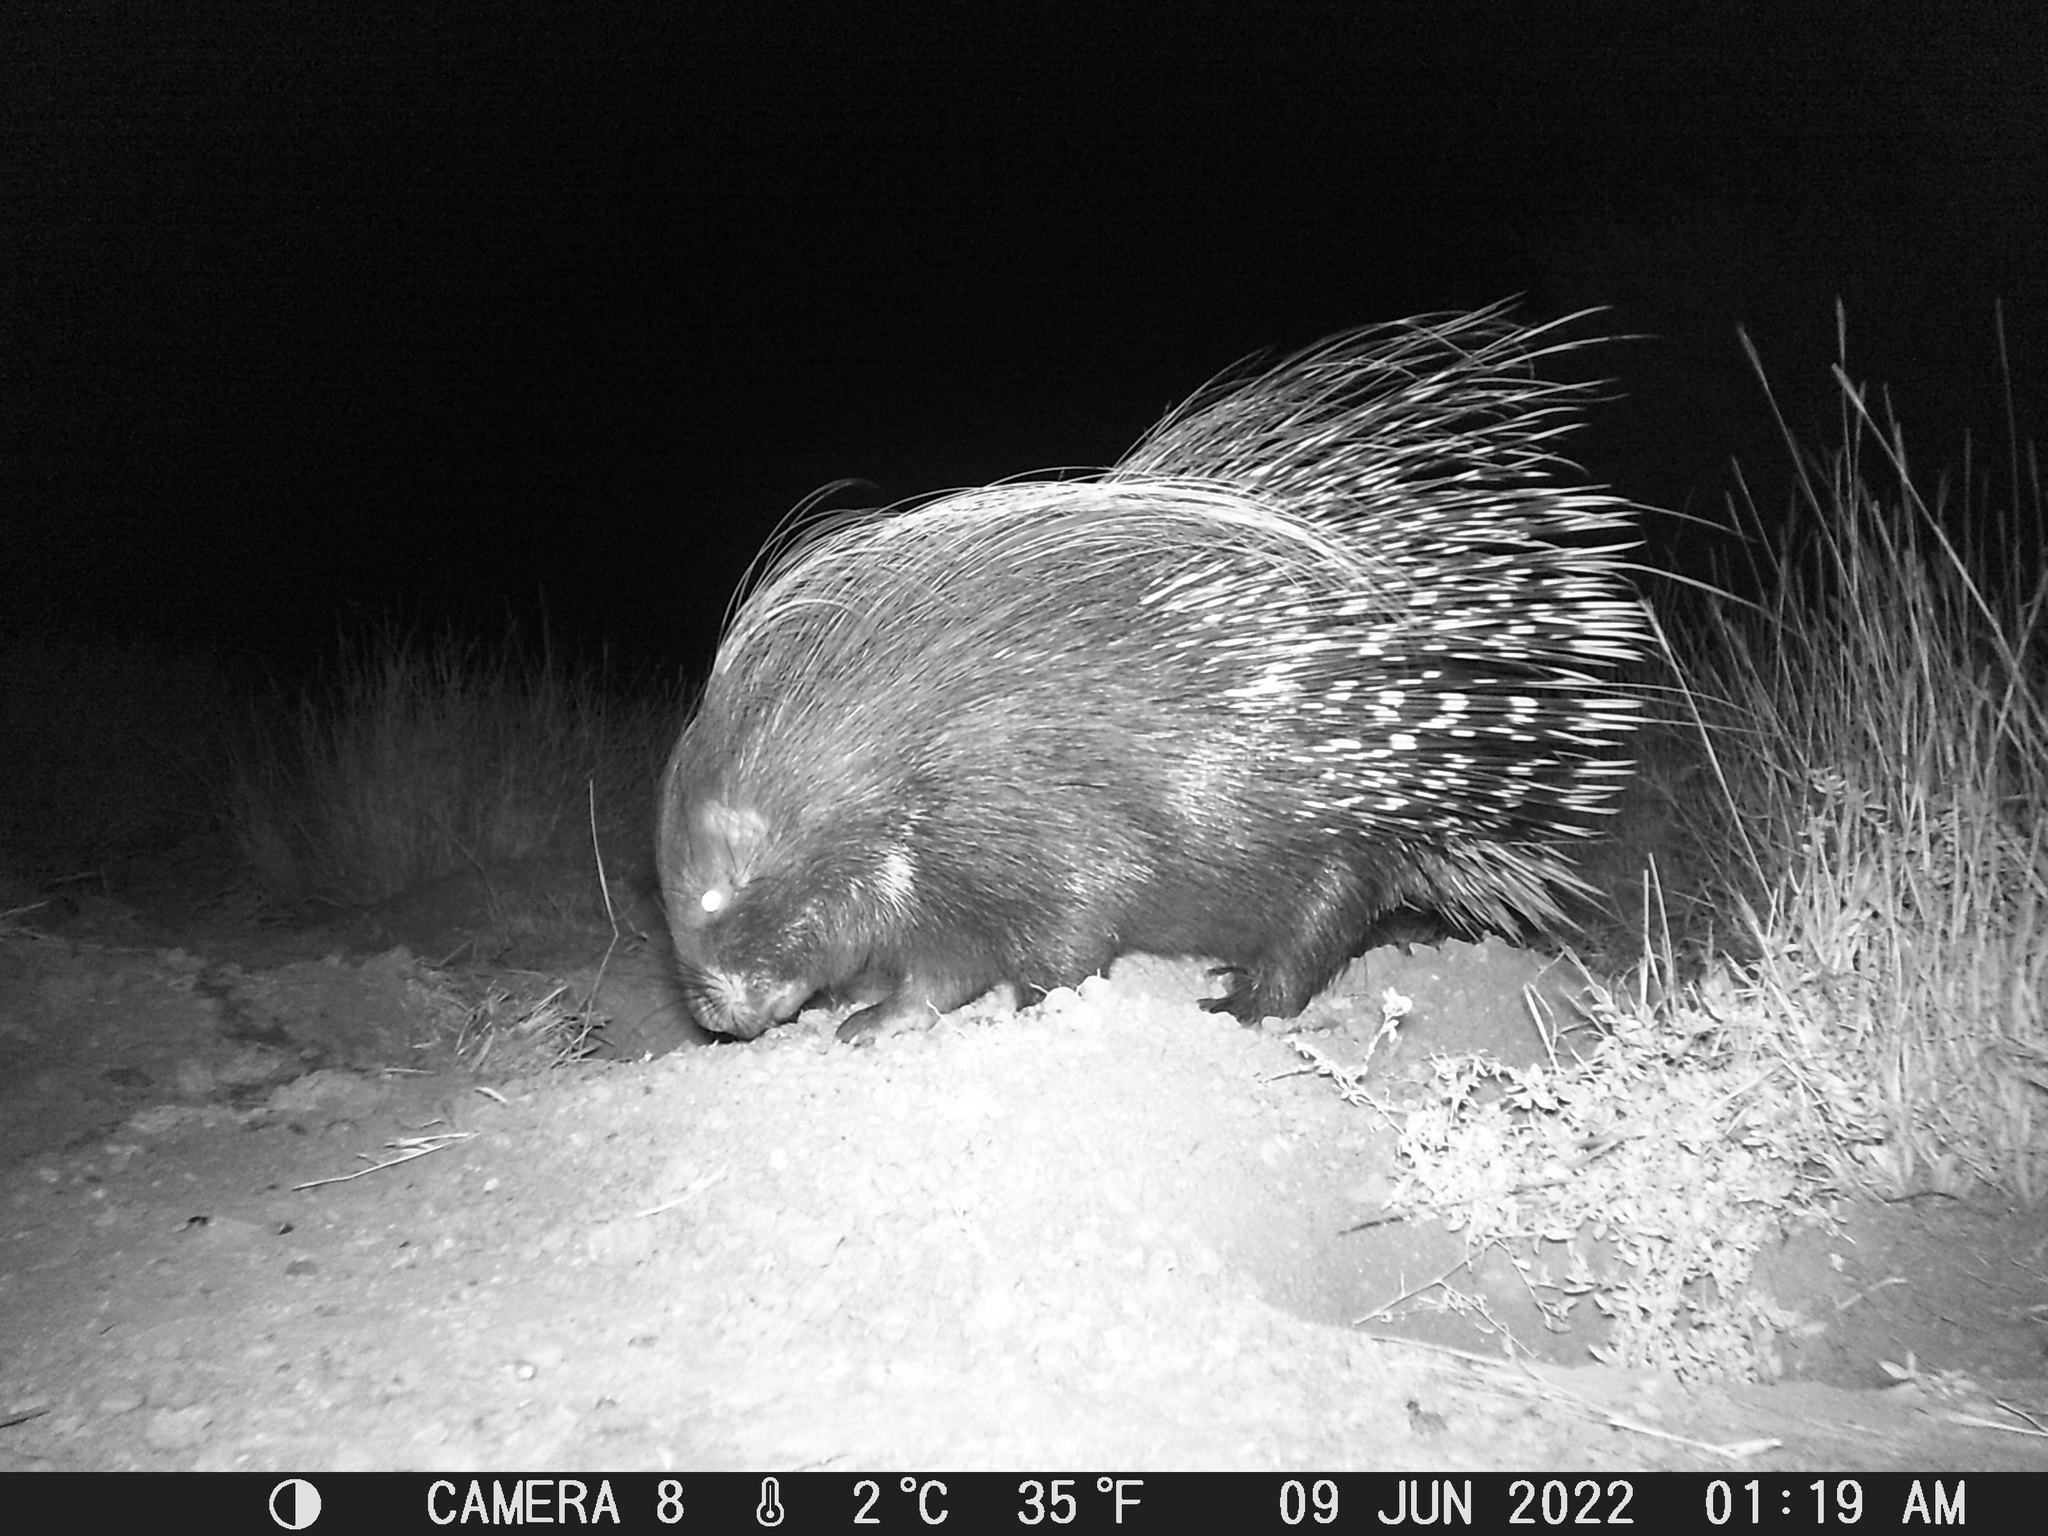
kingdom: Animalia
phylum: Chordata
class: Mammalia
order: Rodentia
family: Hystricidae
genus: Hystrix
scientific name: Hystrix africaeaustralis
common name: Cape porcupine
